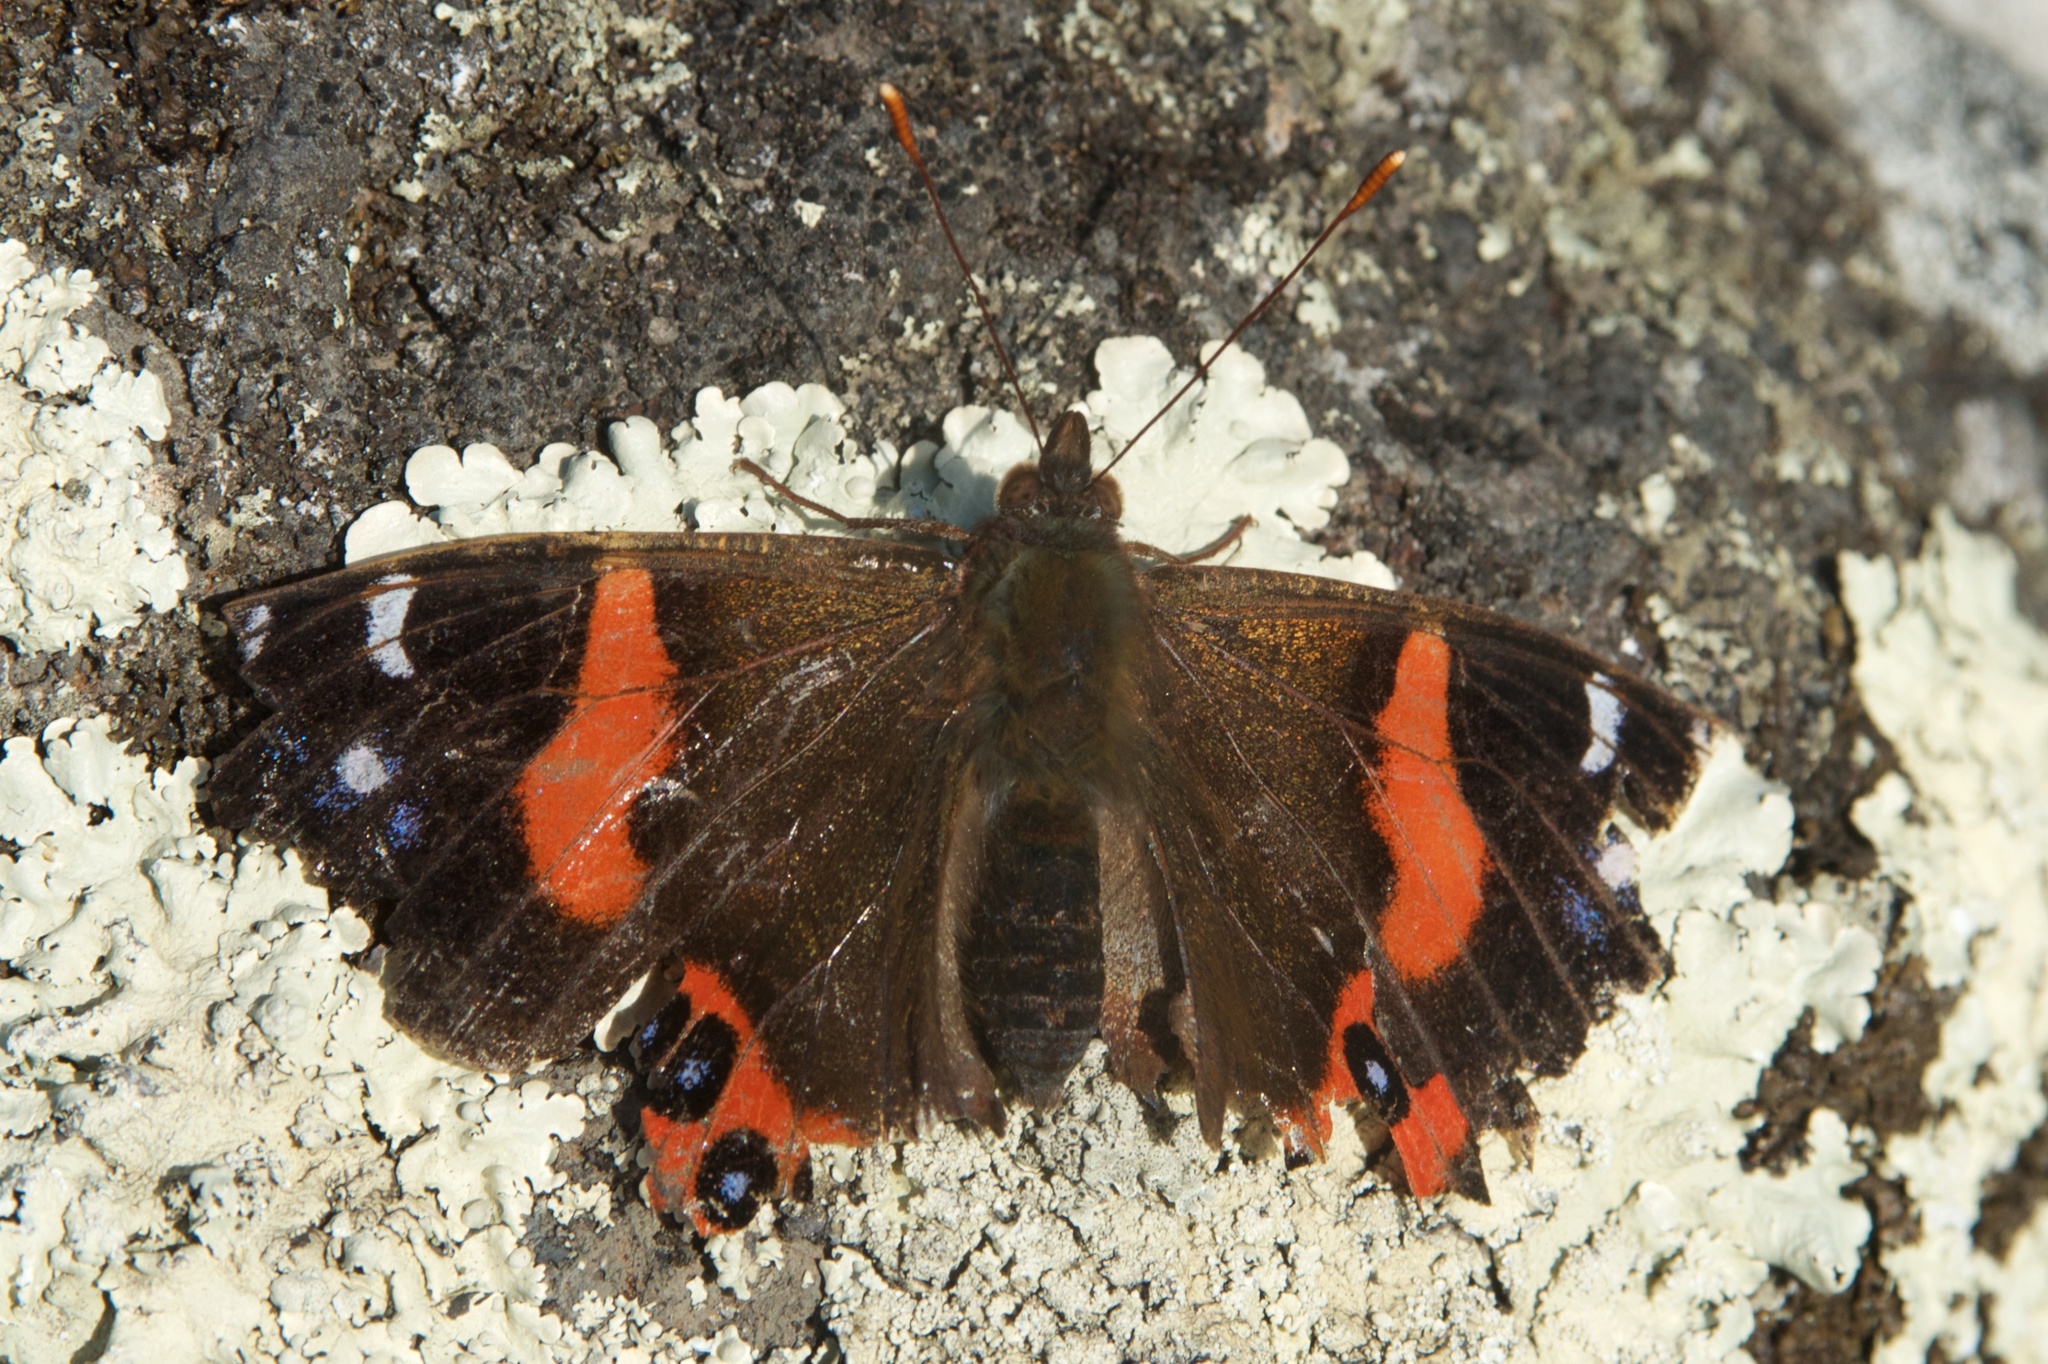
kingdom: Animalia
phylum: Arthropoda
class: Insecta
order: Lepidoptera
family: Nymphalidae
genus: Vanessa
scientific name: Vanessa gonerilla
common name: New zealand red admiral
